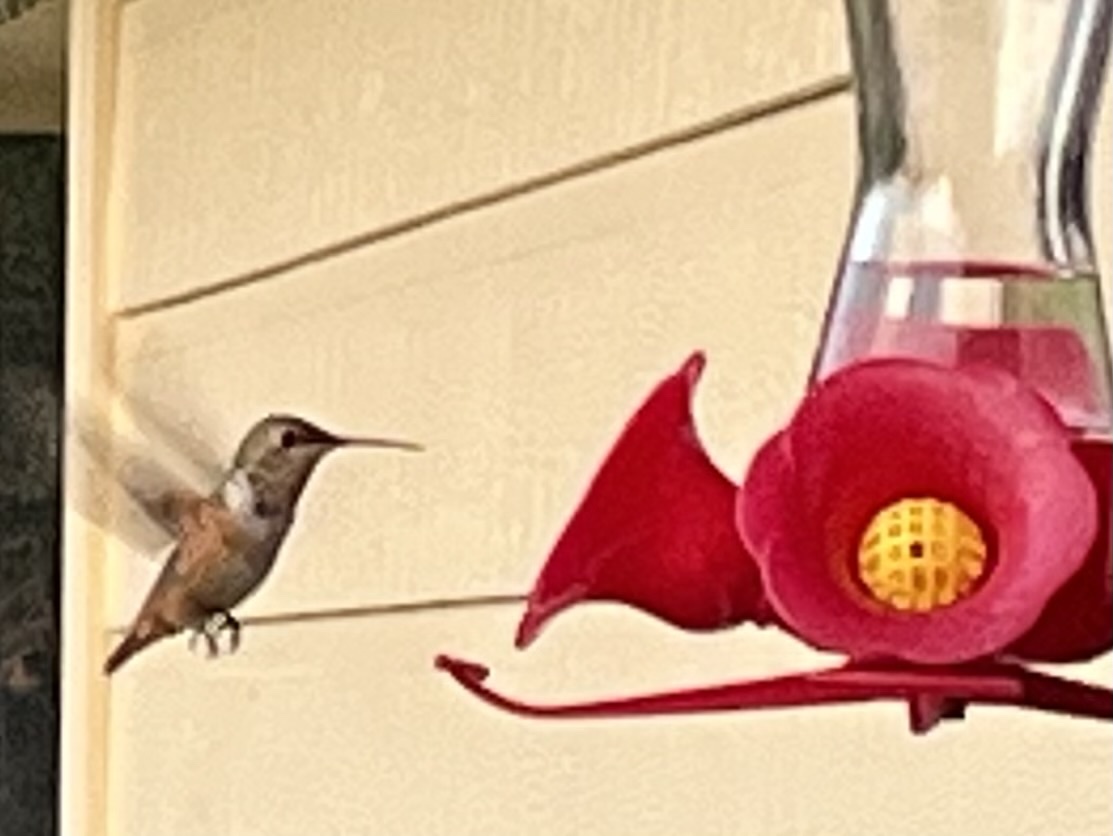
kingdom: Animalia
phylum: Chordata
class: Aves
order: Apodiformes
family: Trochilidae
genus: Selasphorus
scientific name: Selasphorus rufus
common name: Rufous hummingbird
